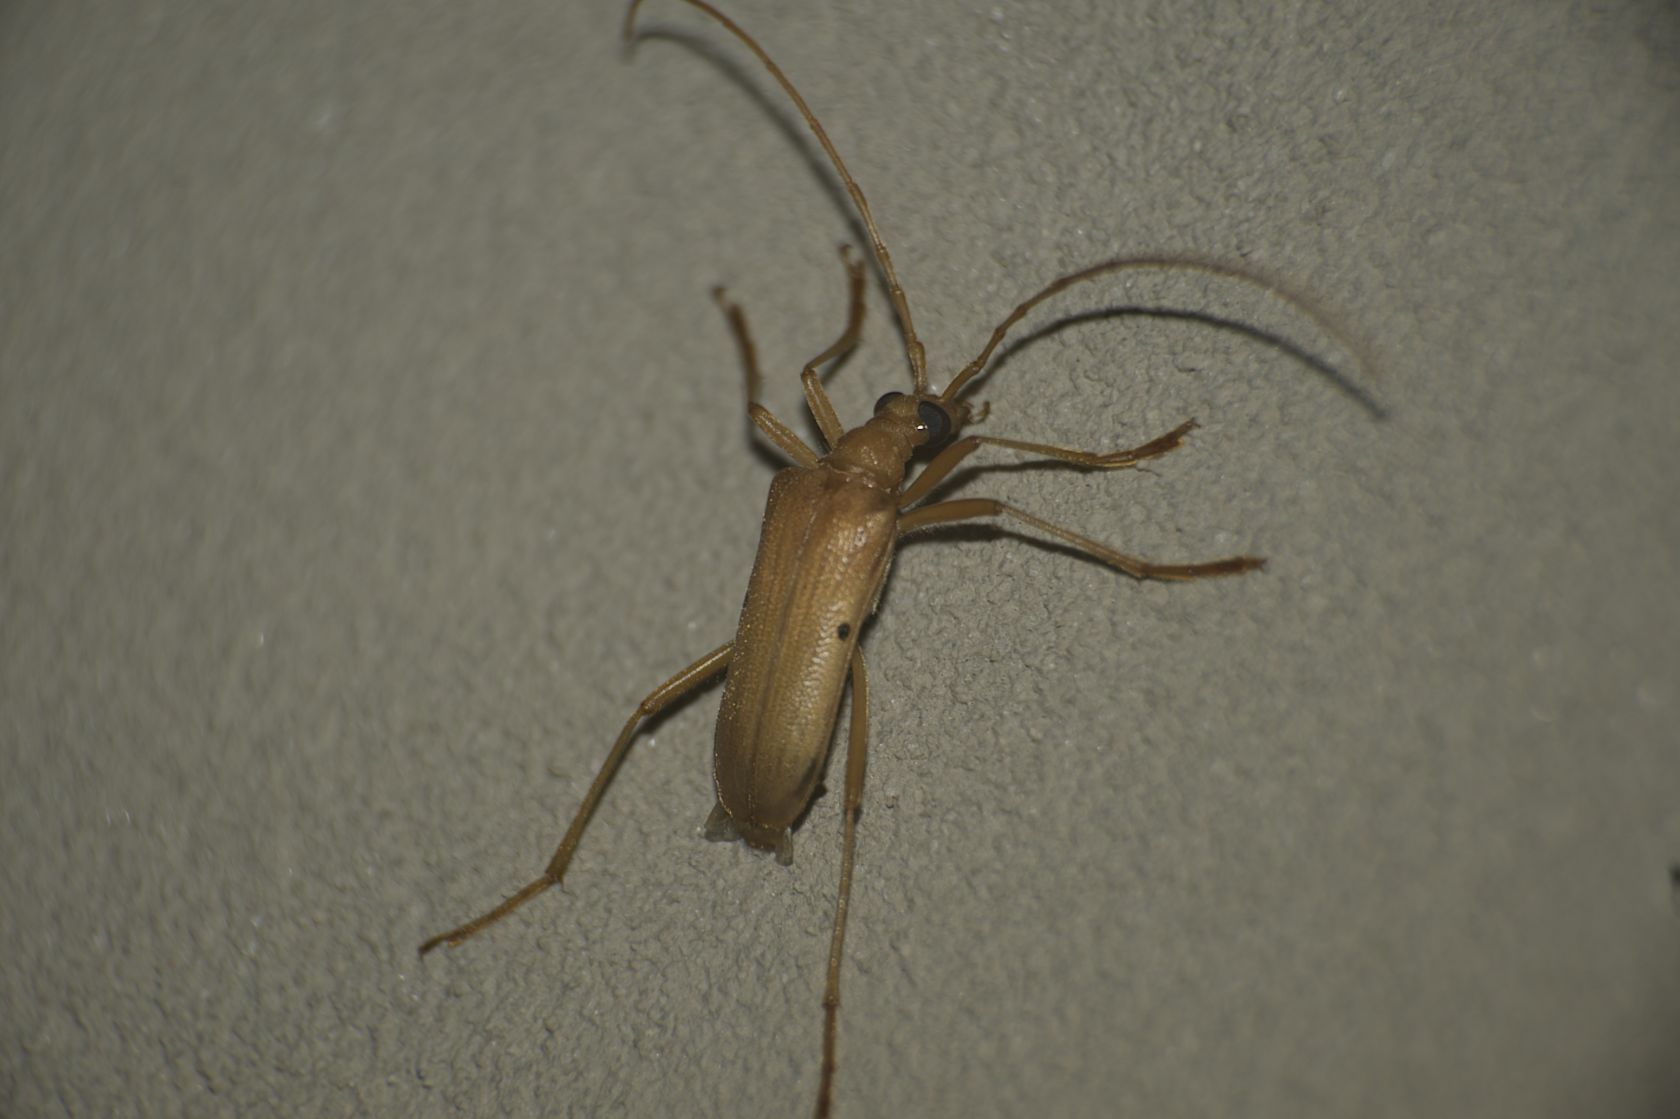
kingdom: Animalia
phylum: Arthropoda
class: Insecta
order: Coleoptera
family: Cerambycidae
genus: Centrodera
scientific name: Centrodera spurca
